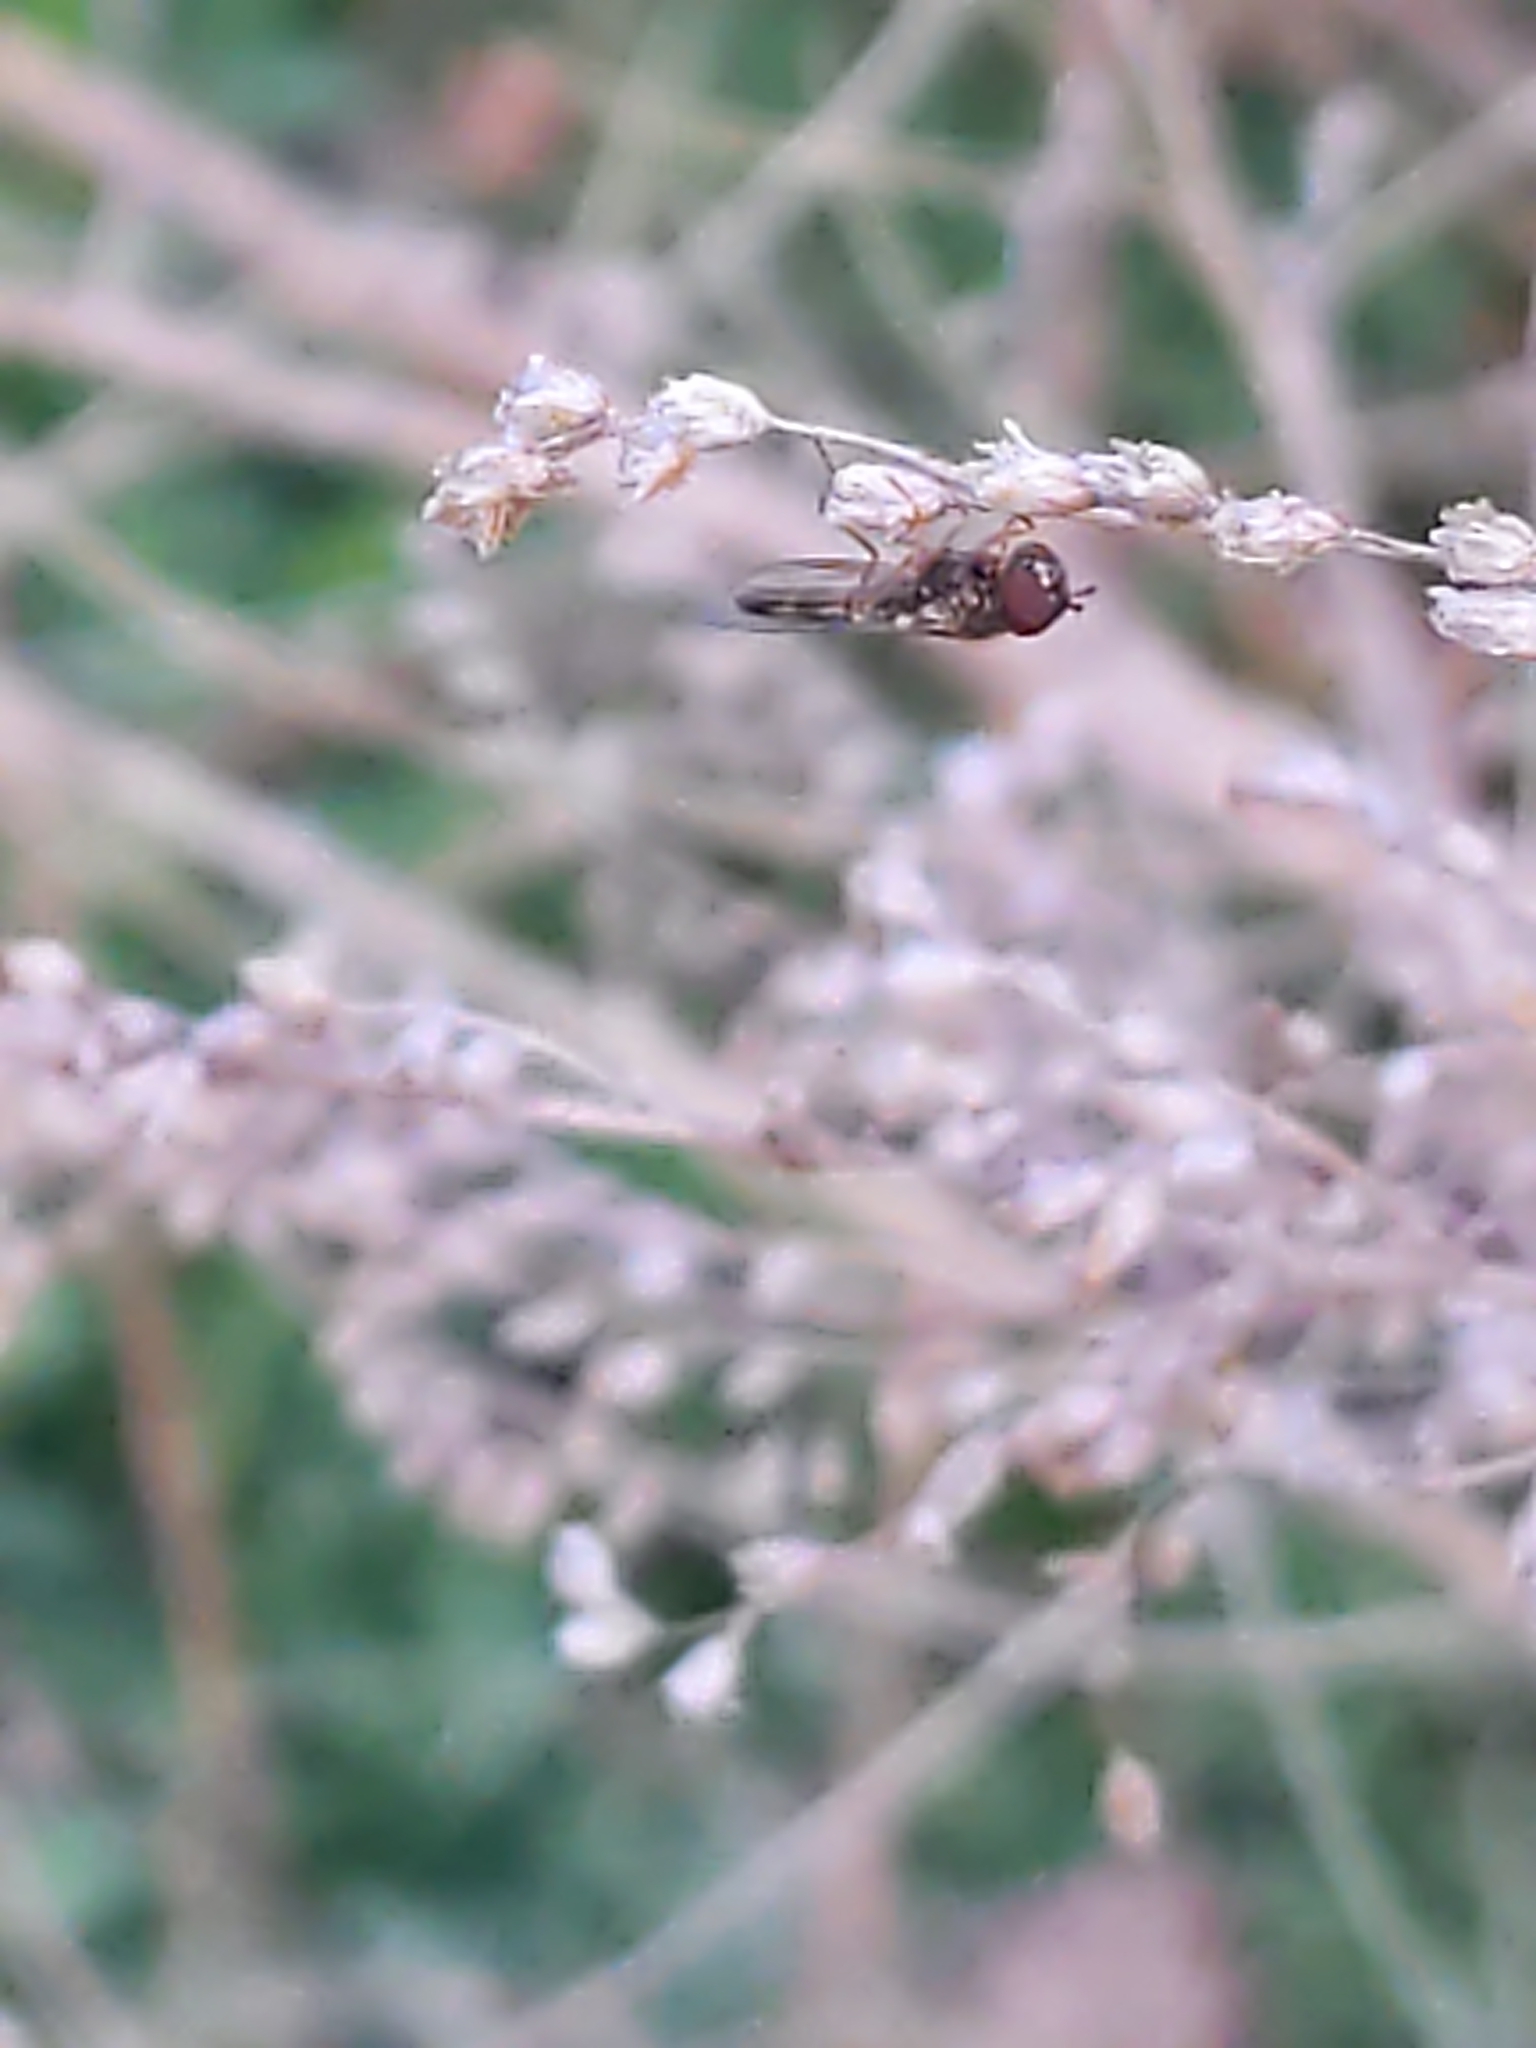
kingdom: Animalia
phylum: Arthropoda
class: Insecta
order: Diptera
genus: Bacchina
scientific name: Bacchina
